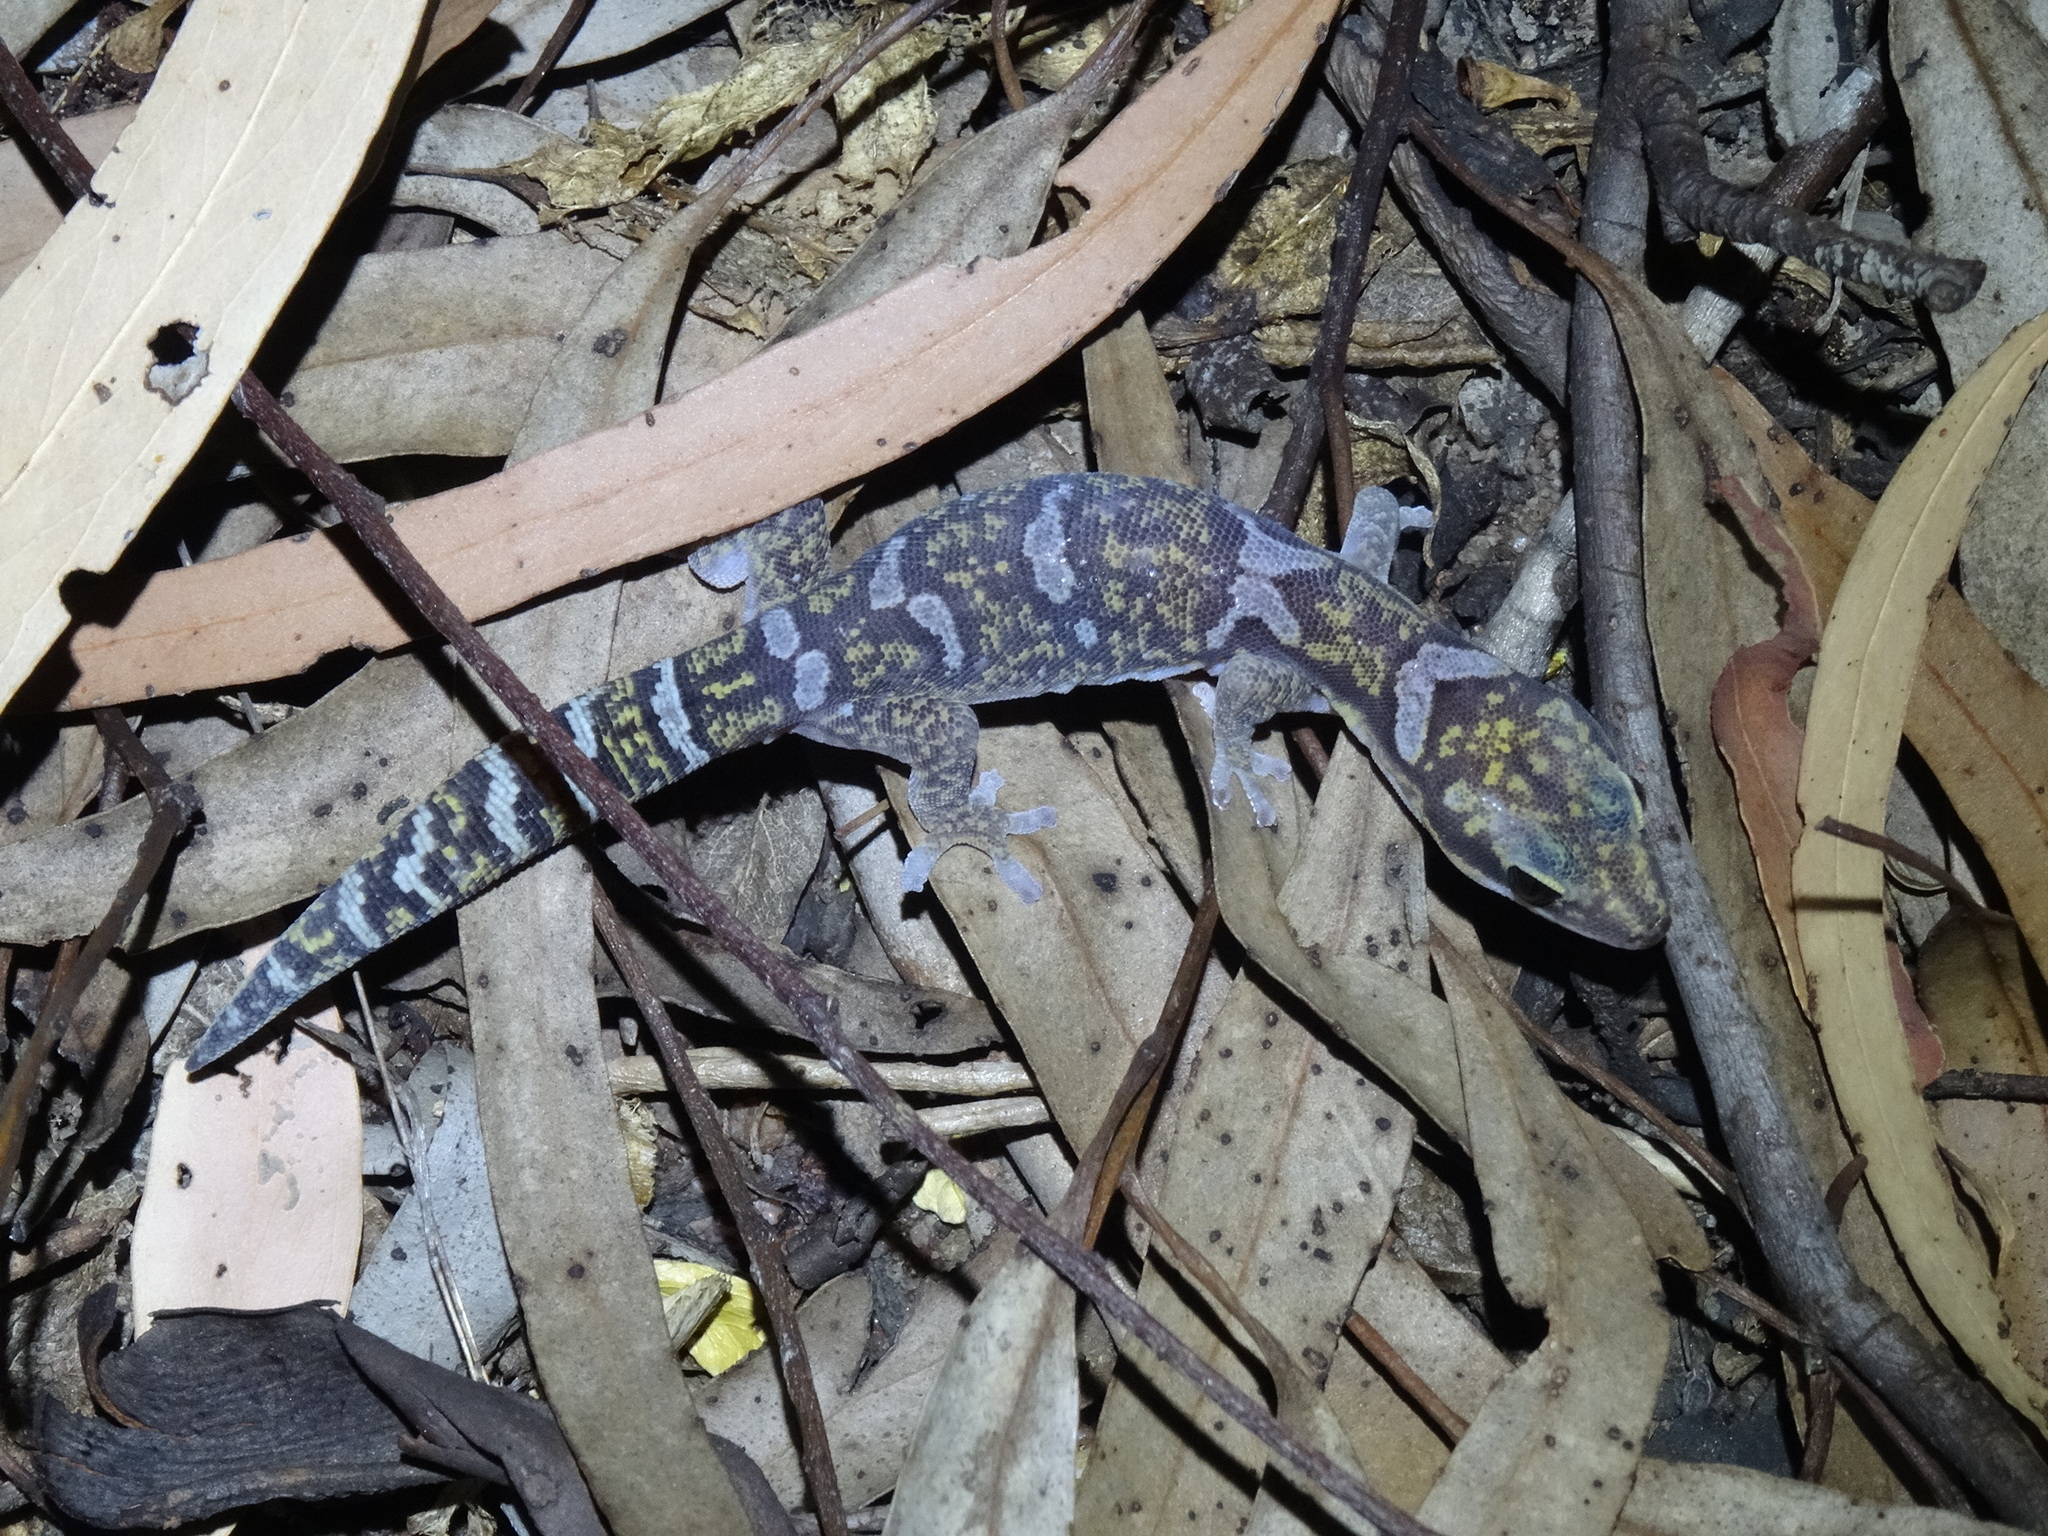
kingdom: Animalia
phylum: Chordata
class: Squamata
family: Diplodactylidae
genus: Oedura
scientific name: Oedura monilis
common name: Blotched gecko
